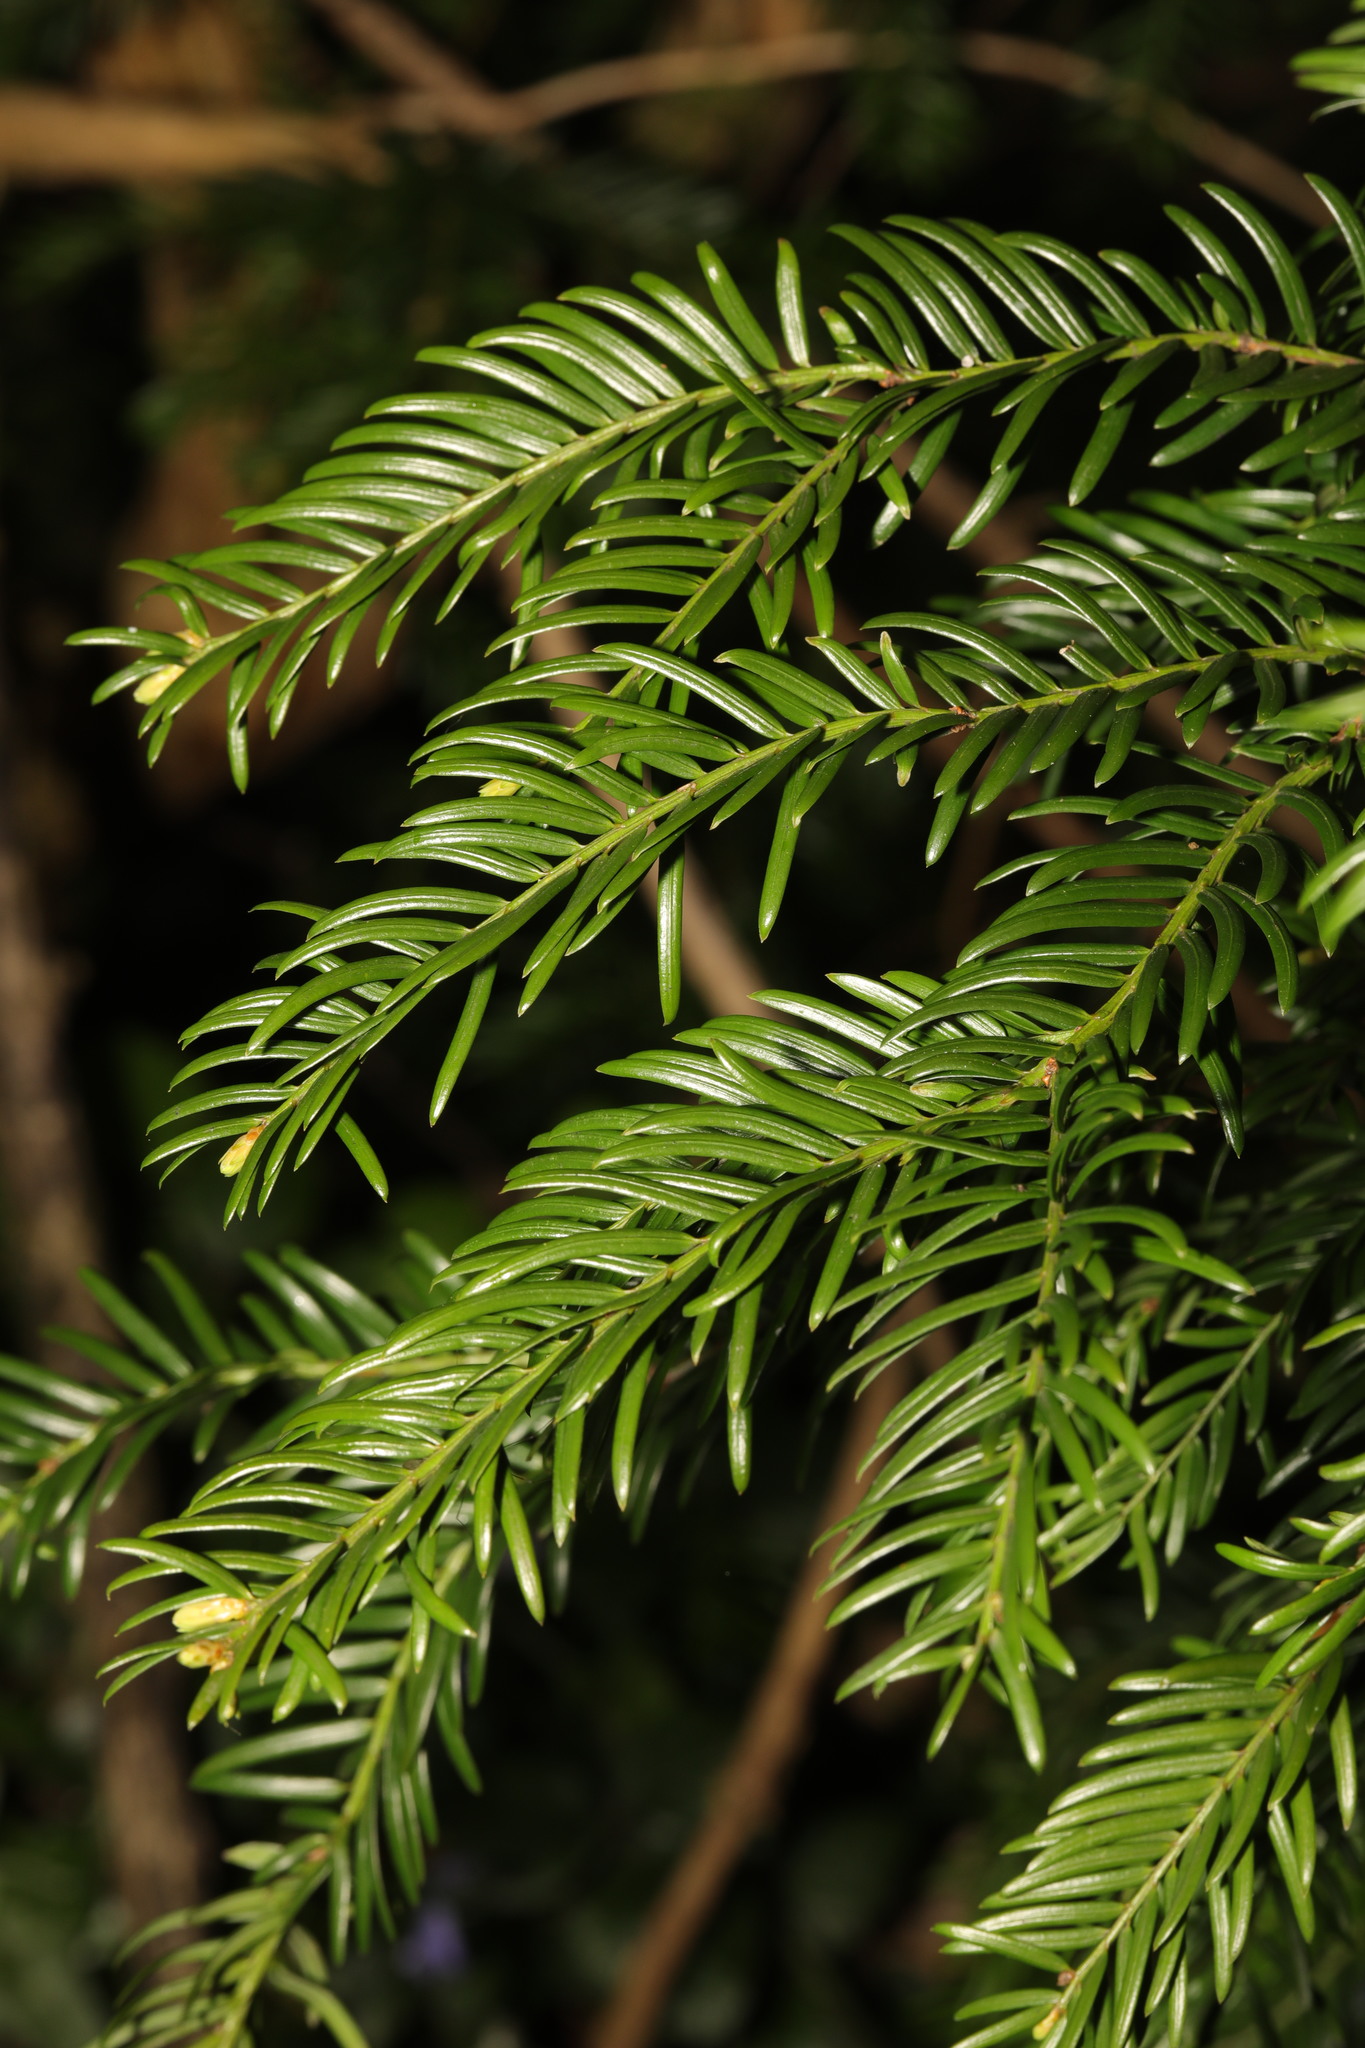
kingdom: Plantae
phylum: Tracheophyta
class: Pinopsida
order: Pinales
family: Taxaceae
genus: Taxus
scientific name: Taxus baccata
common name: Yew
